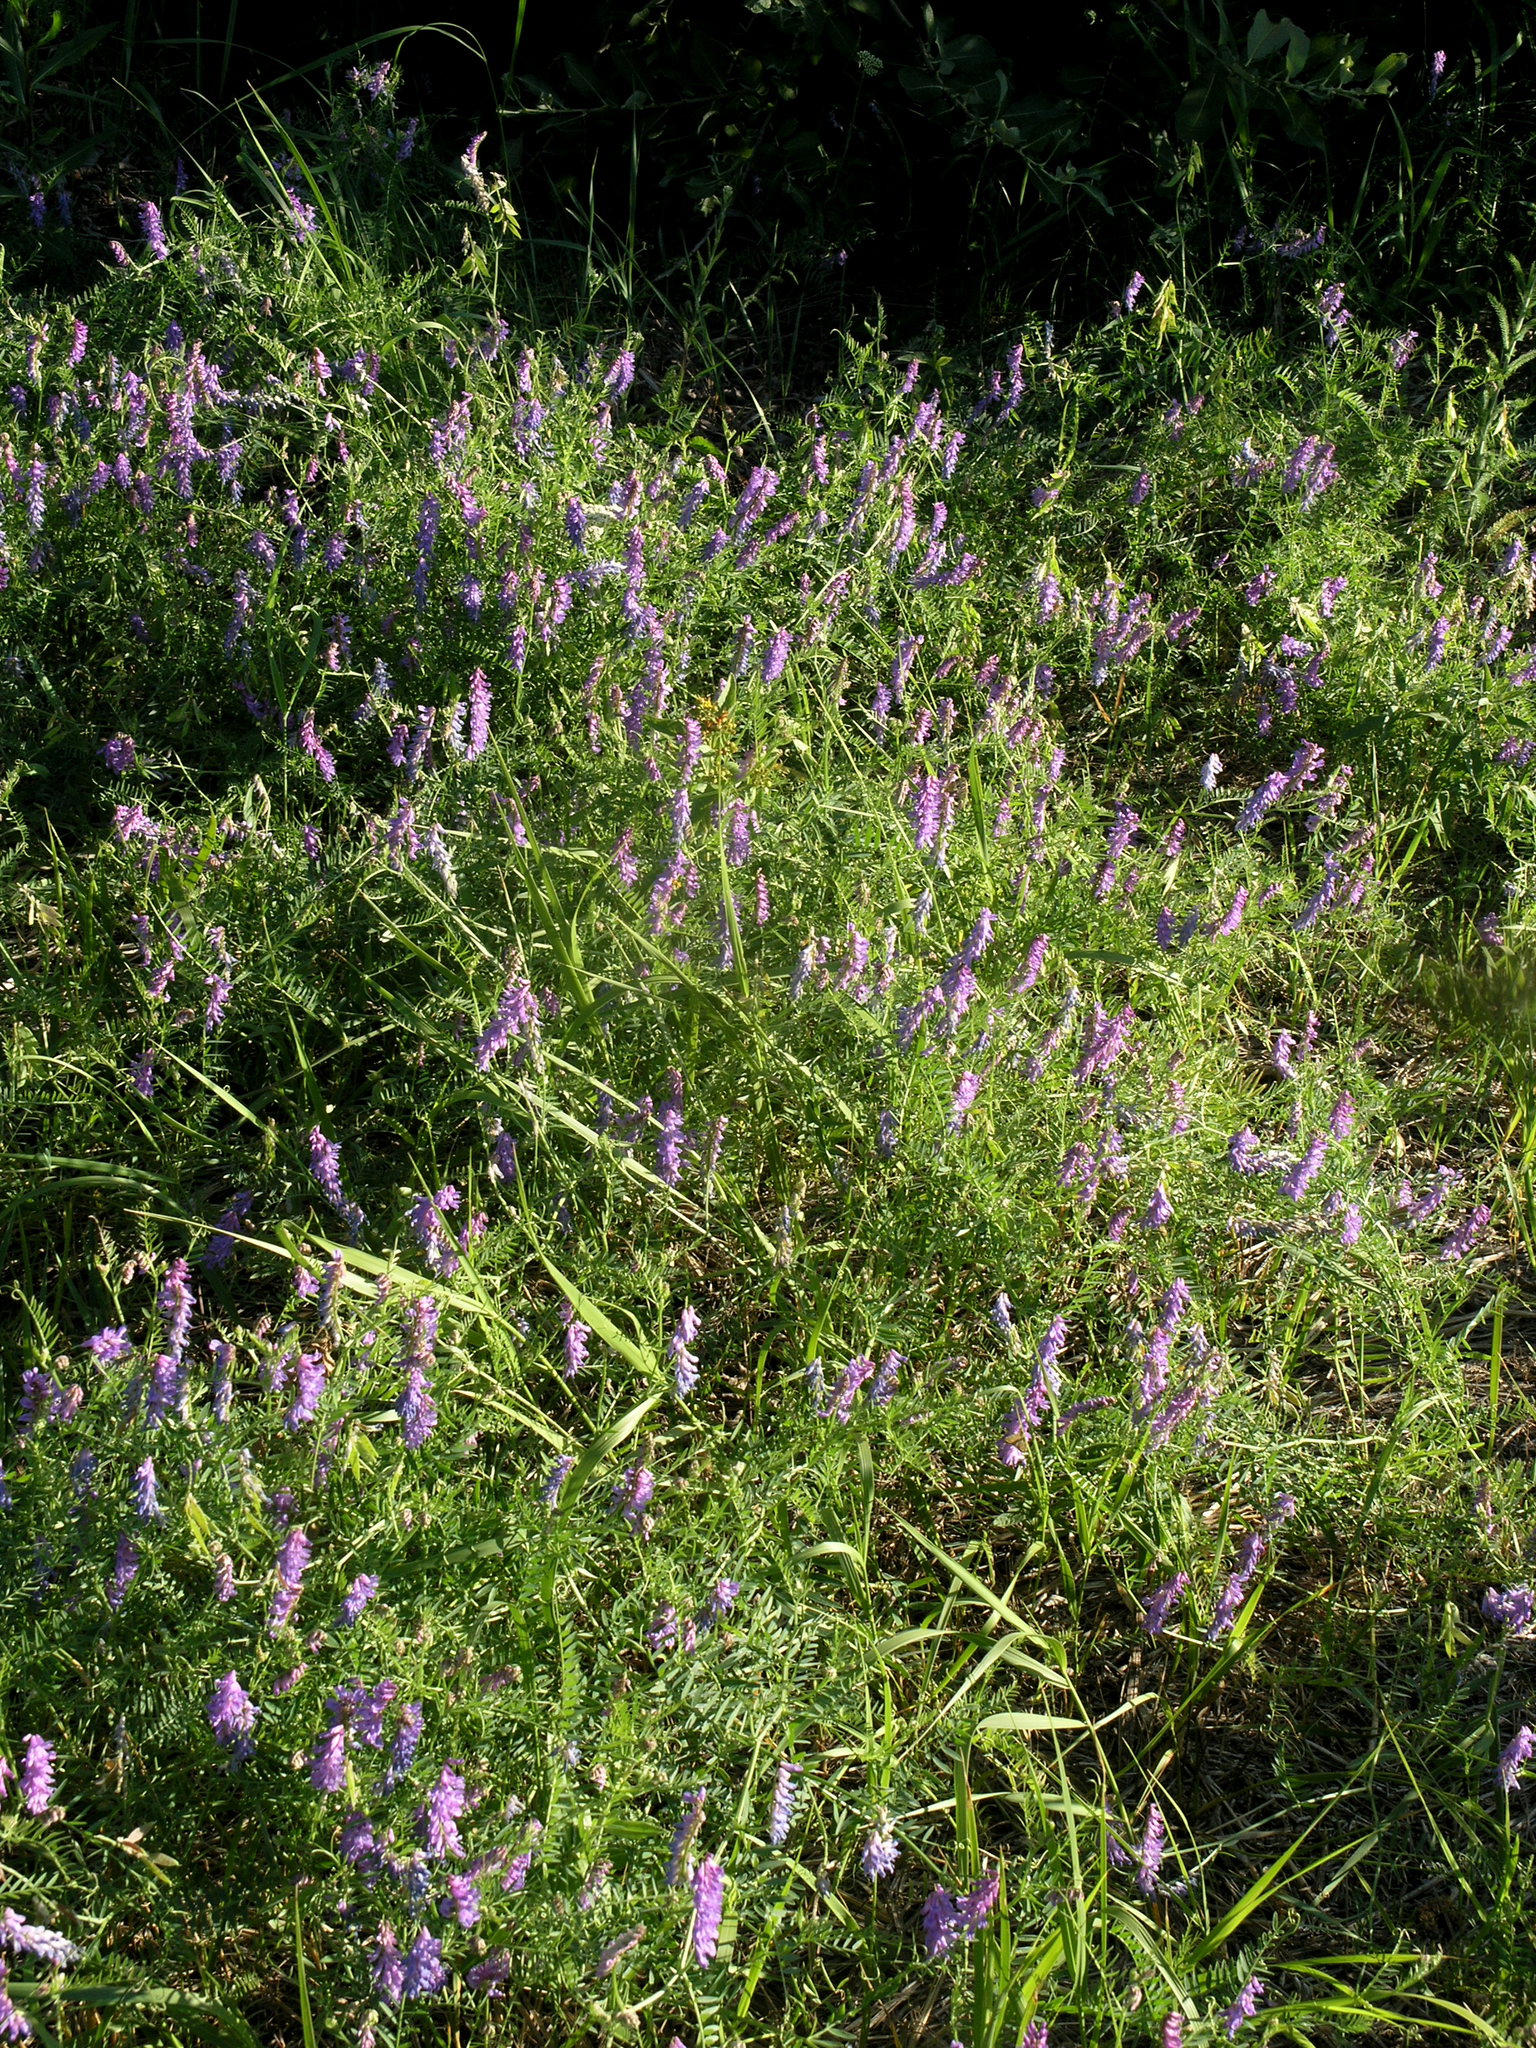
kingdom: Plantae
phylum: Tracheophyta
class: Magnoliopsida
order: Fabales
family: Fabaceae
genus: Vicia
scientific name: Vicia cracca
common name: Bird vetch
